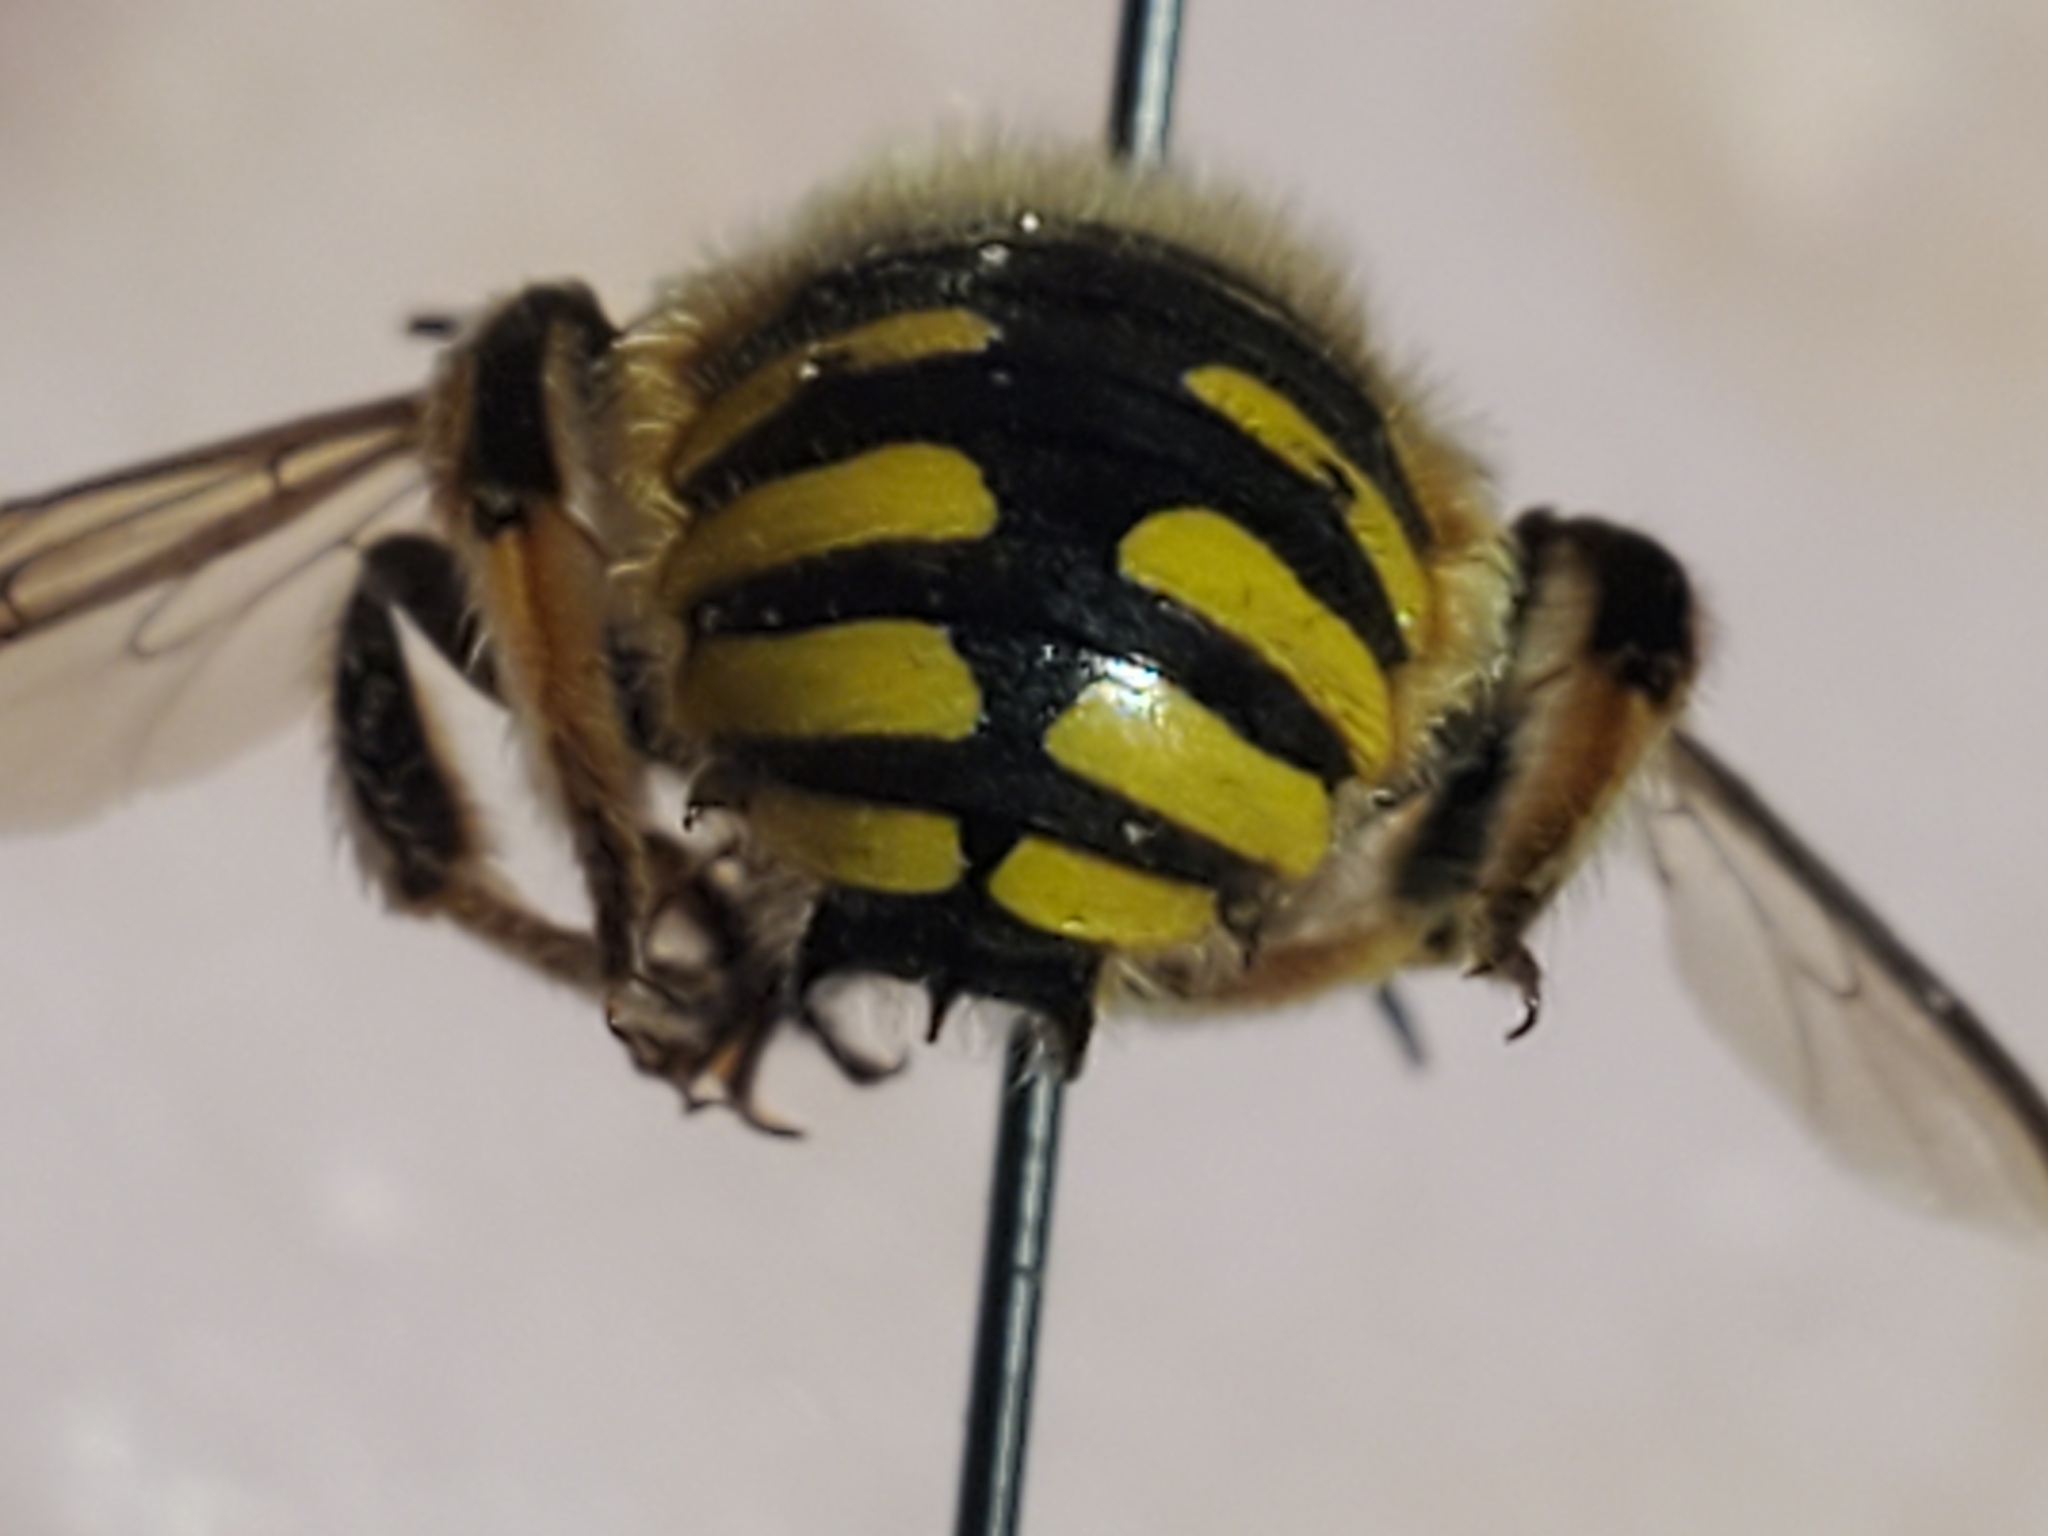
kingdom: Animalia
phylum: Arthropoda
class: Insecta
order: Hymenoptera
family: Megachilidae
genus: Anthidium
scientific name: Anthidium manicatum
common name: Wool carder bee
